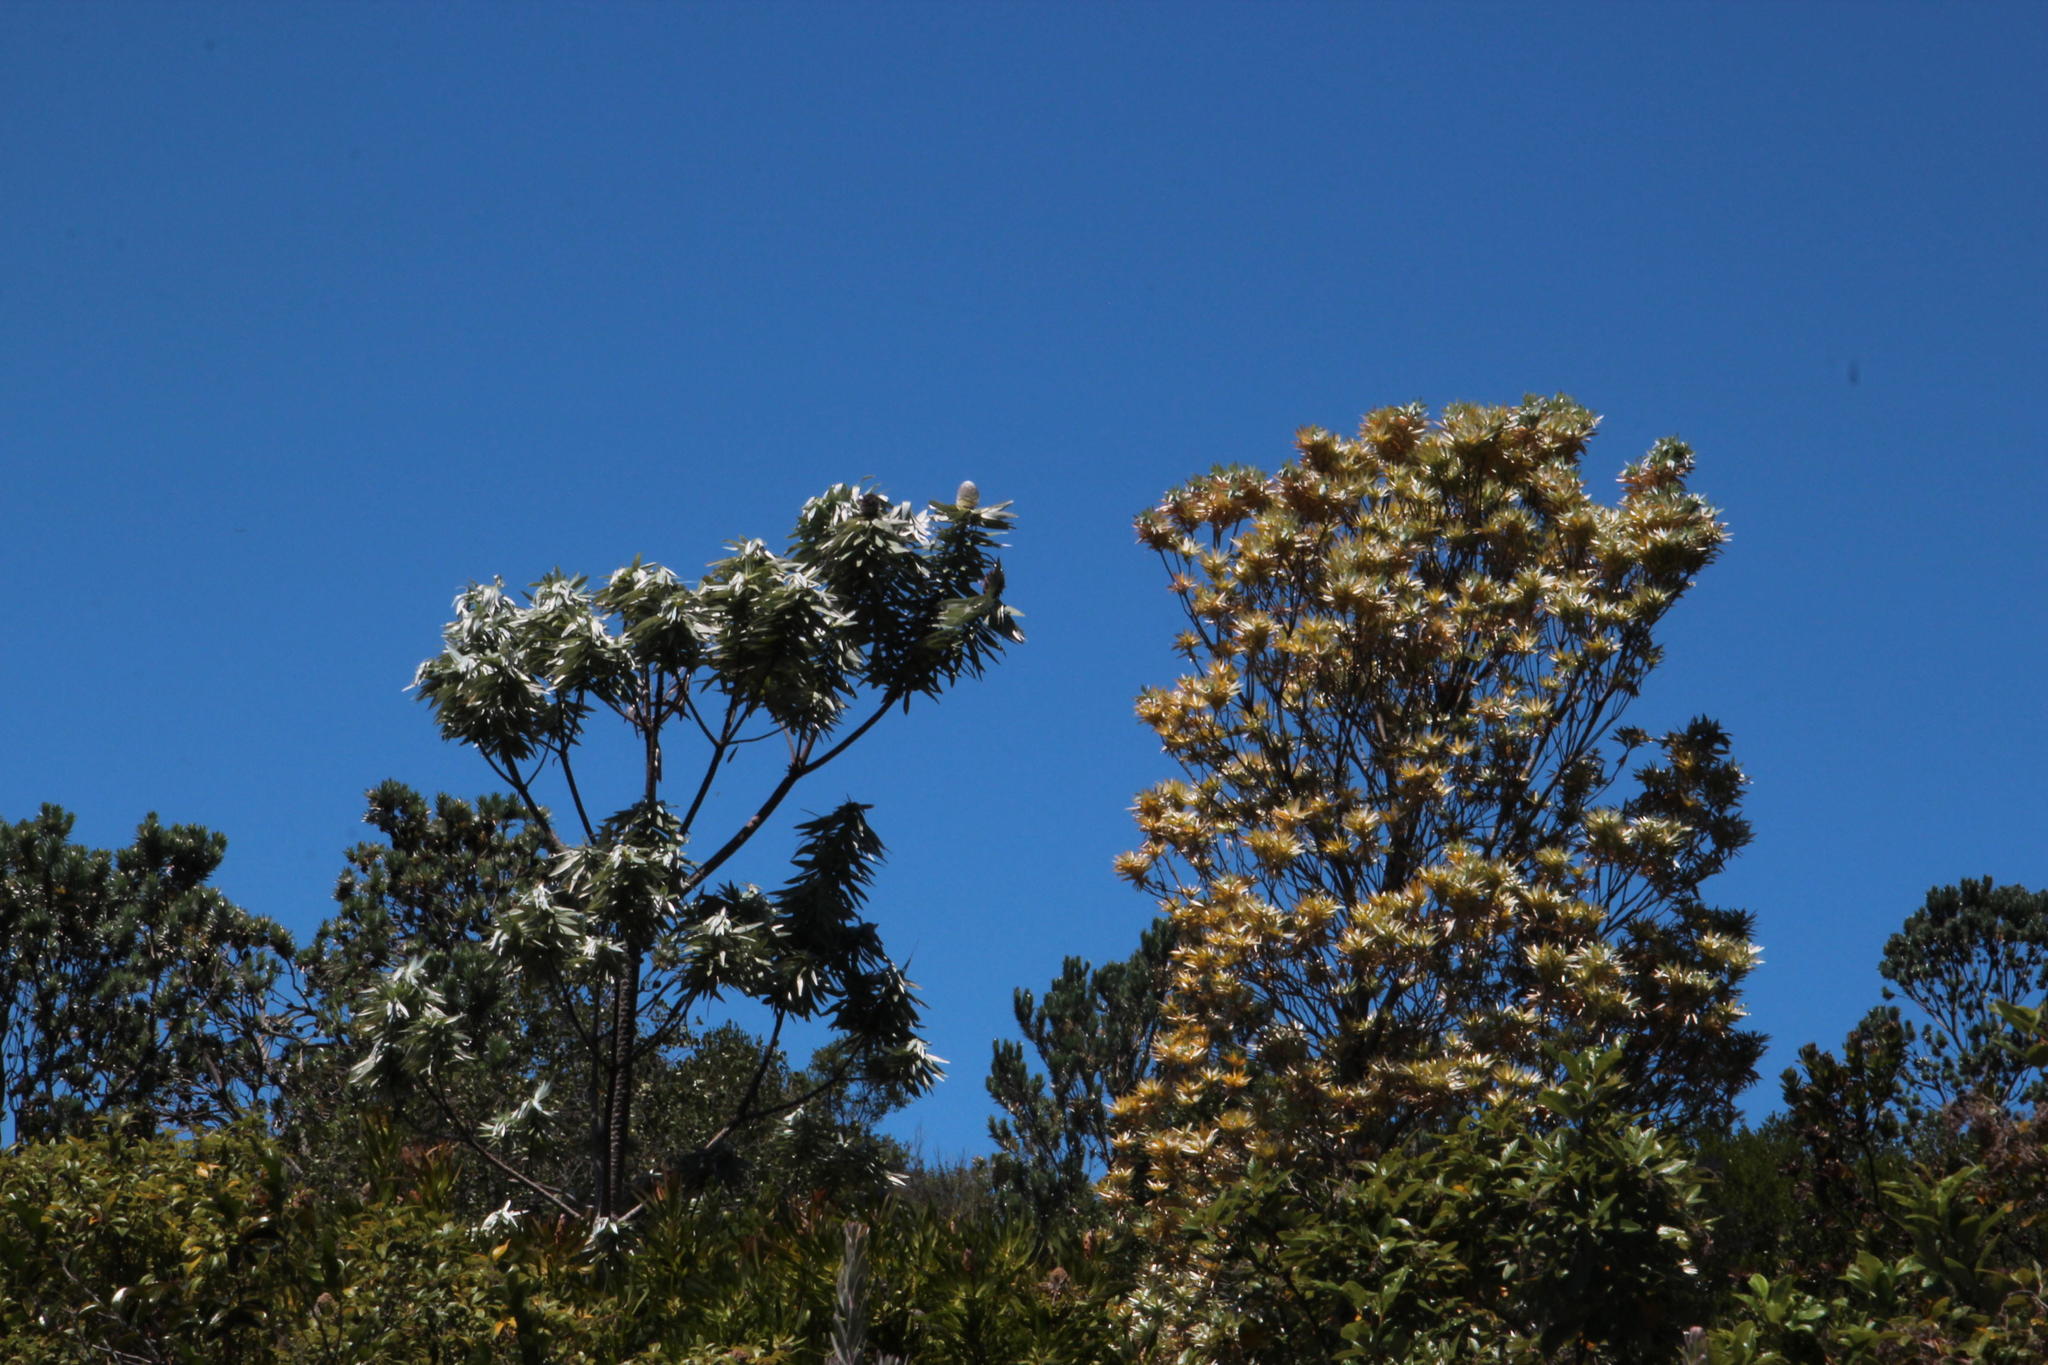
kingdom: Plantae
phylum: Tracheophyta
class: Magnoliopsida
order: Proteales
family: Proteaceae
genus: Leucadendron
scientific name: Leucadendron argenteum
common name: Cape silver tree
